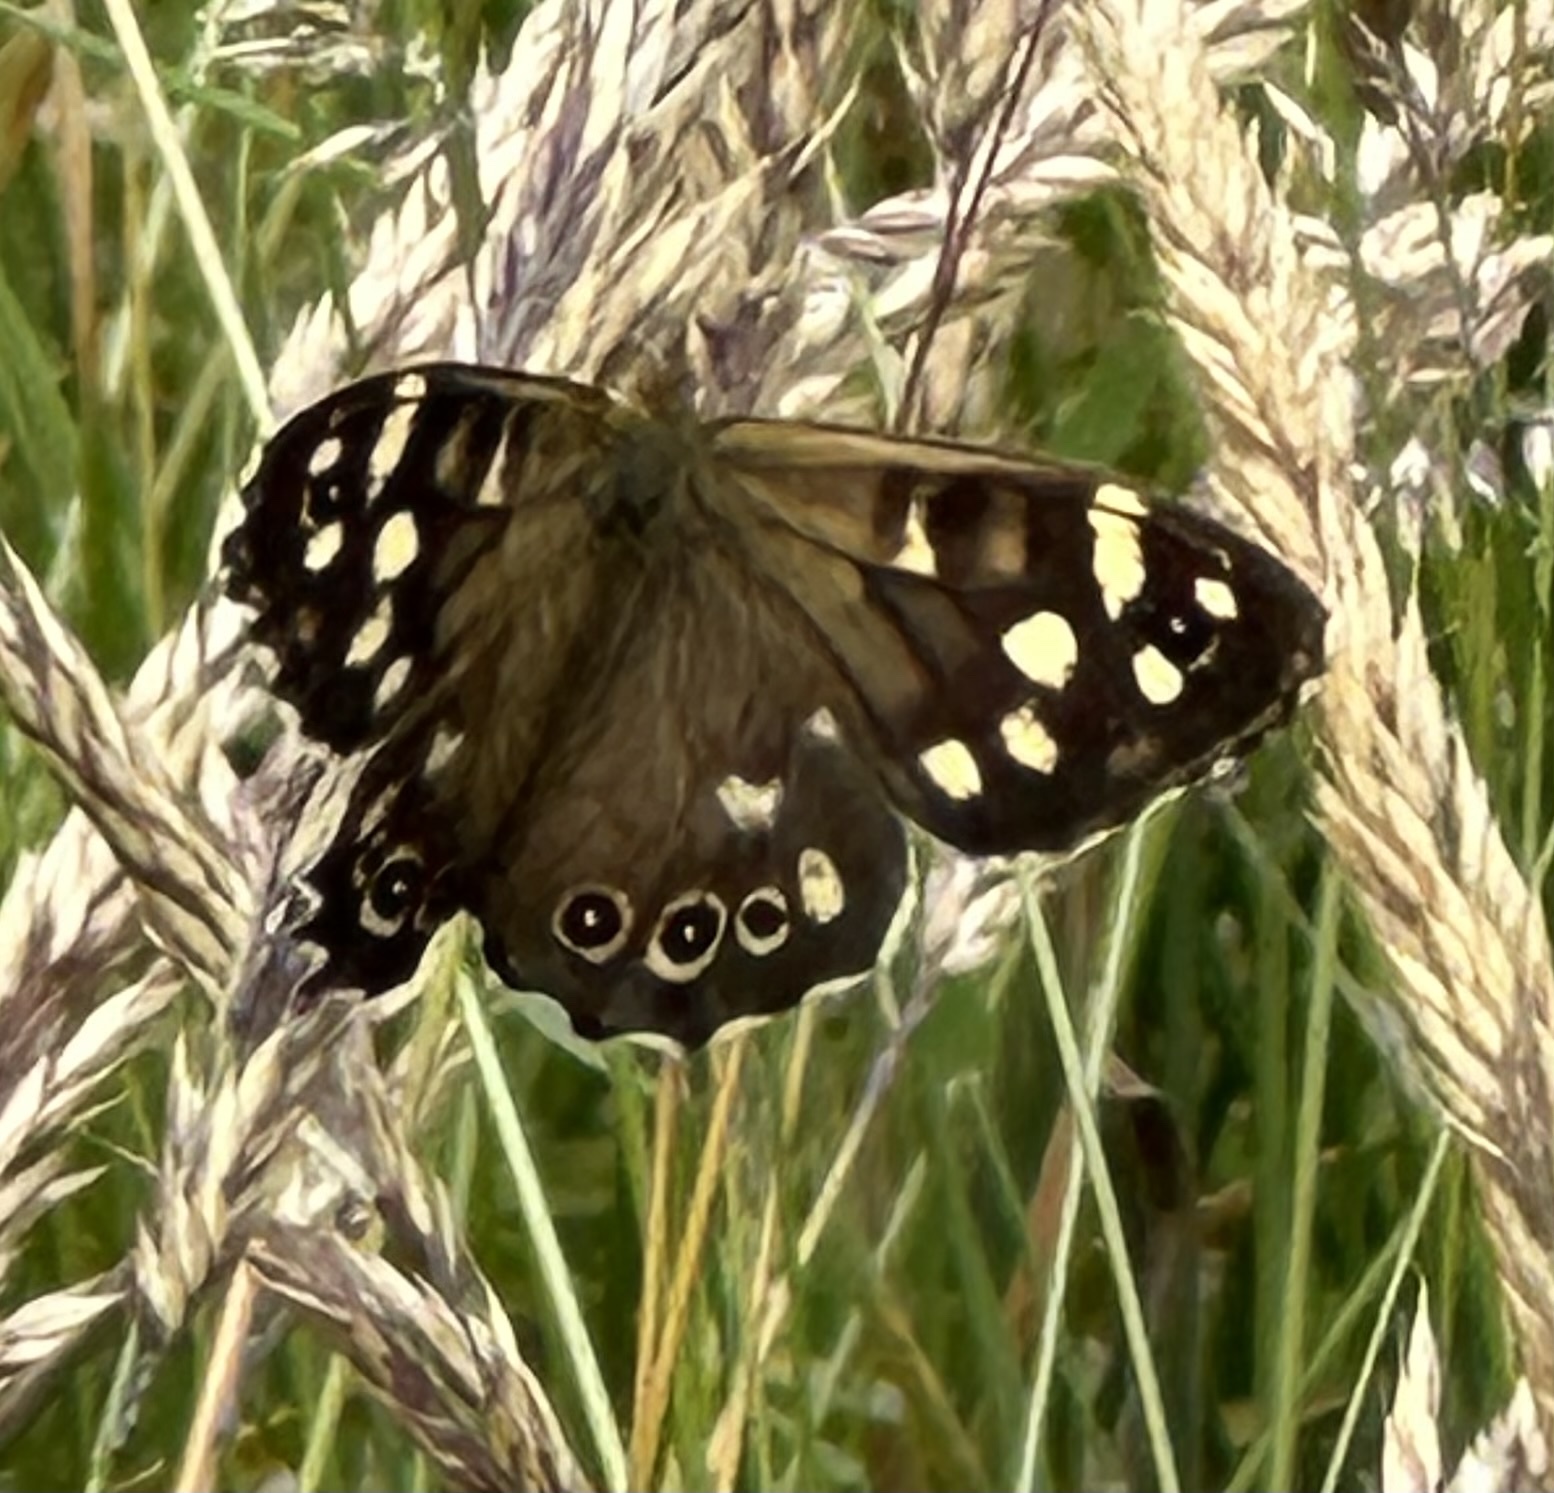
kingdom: Animalia
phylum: Arthropoda
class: Insecta
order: Lepidoptera
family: Nymphalidae
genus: Pararge
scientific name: Pararge aegeria
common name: Speckled wood
